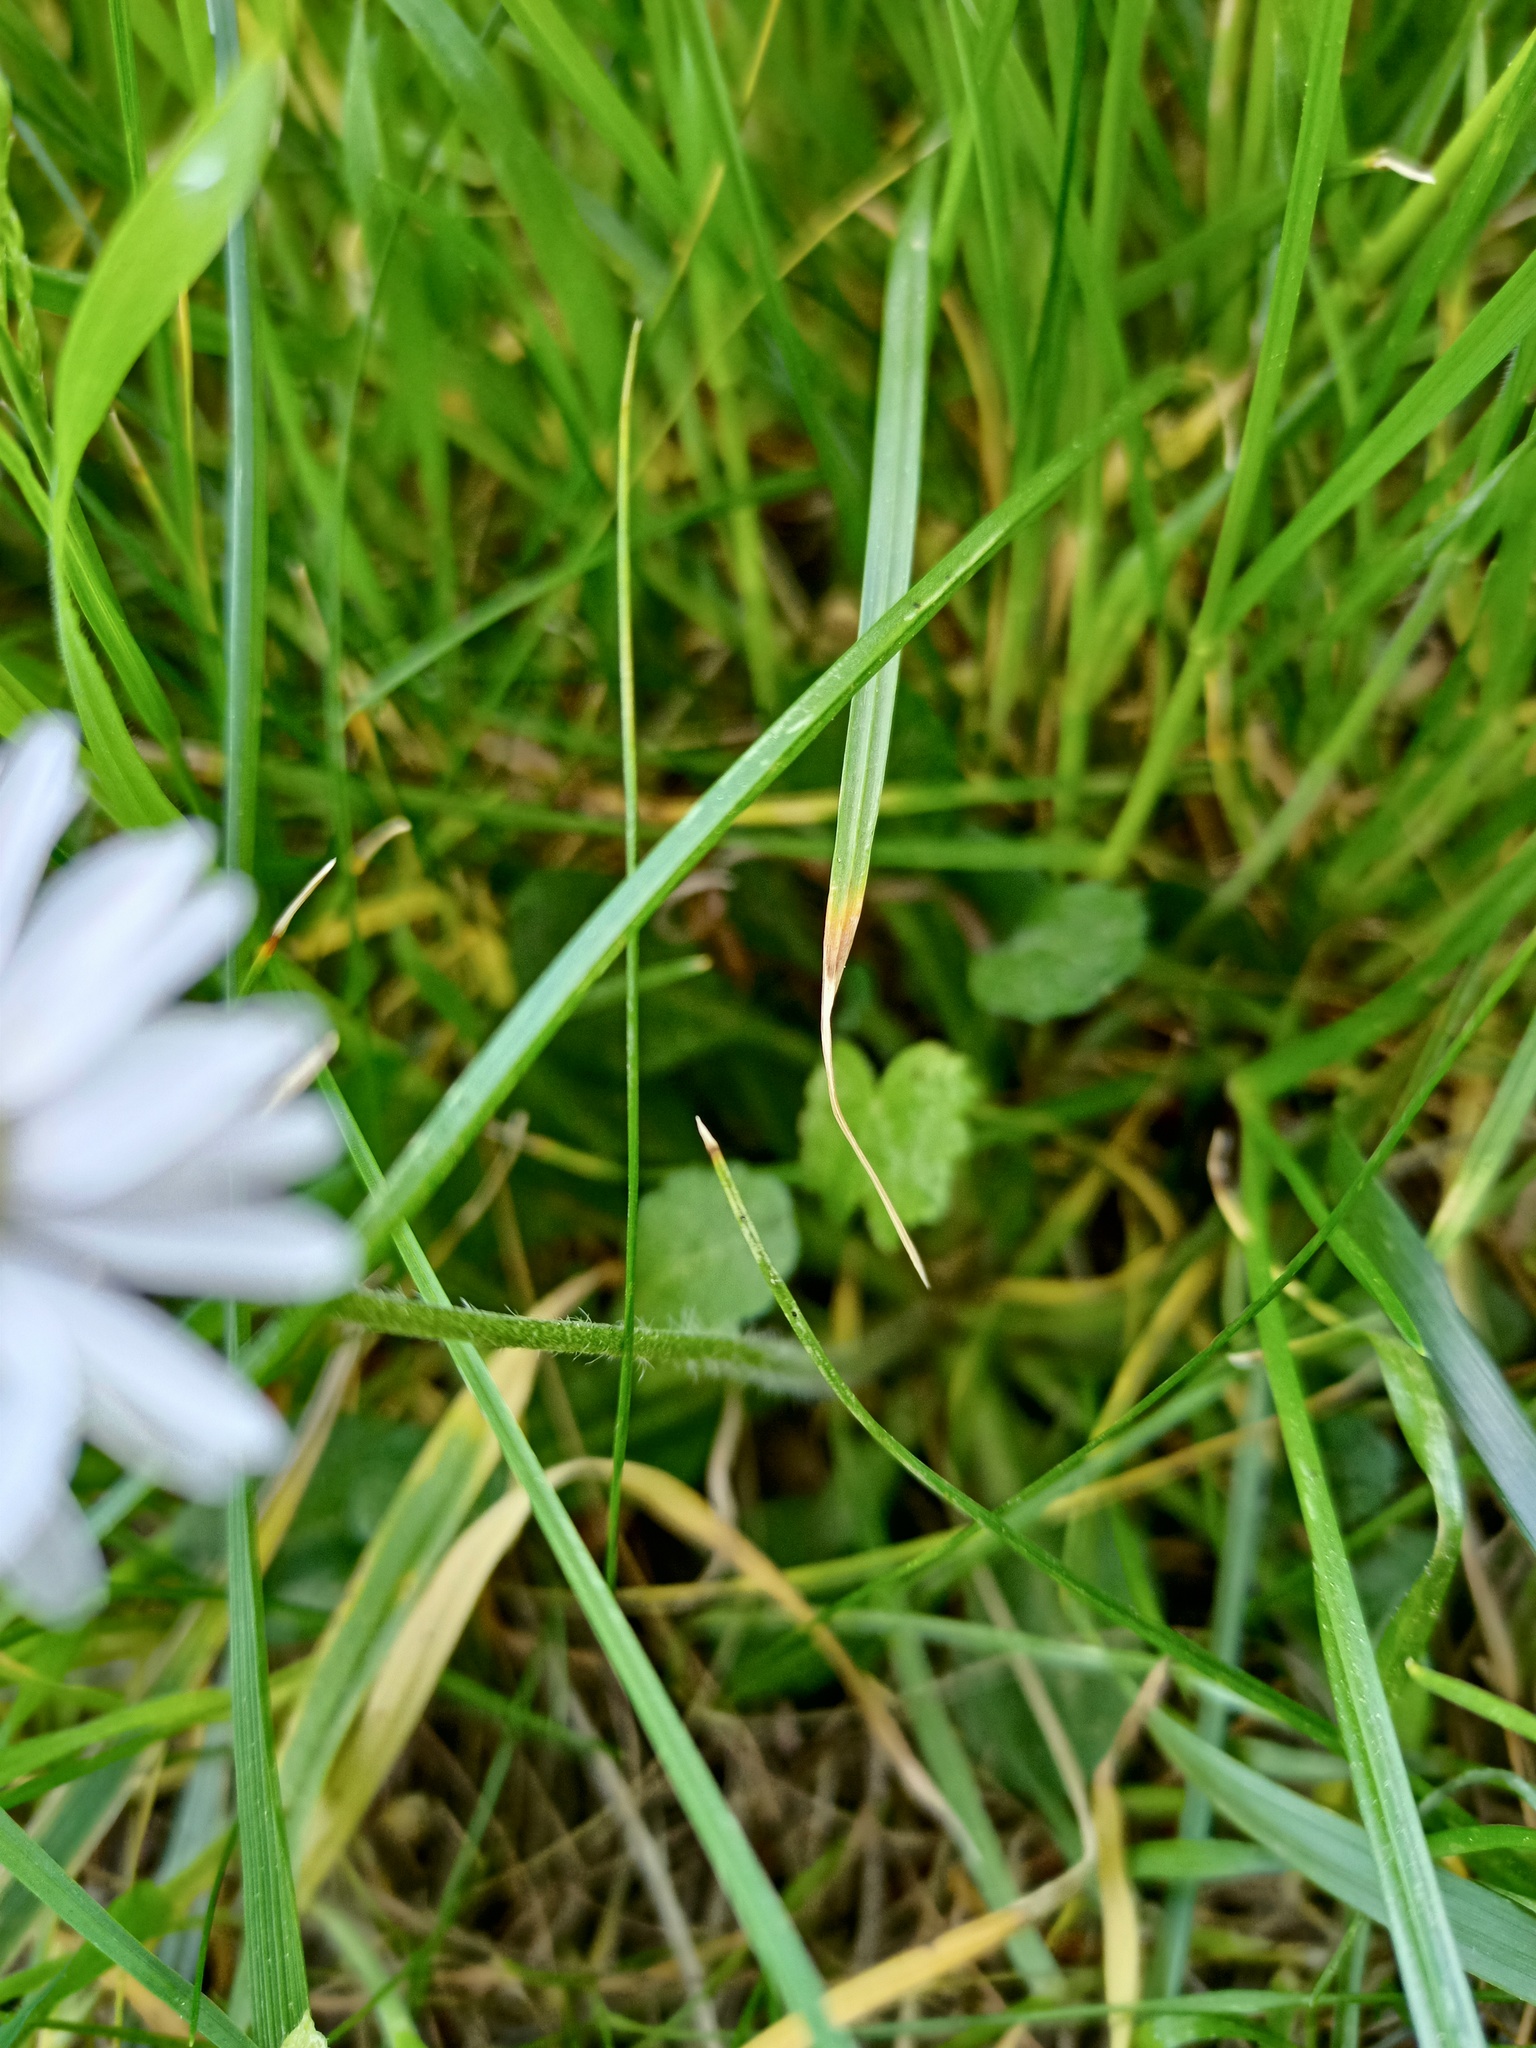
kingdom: Plantae
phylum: Tracheophyta
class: Magnoliopsida
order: Asterales
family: Asteraceae
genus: Bellis
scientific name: Bellis perennis
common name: Lawndaisy
